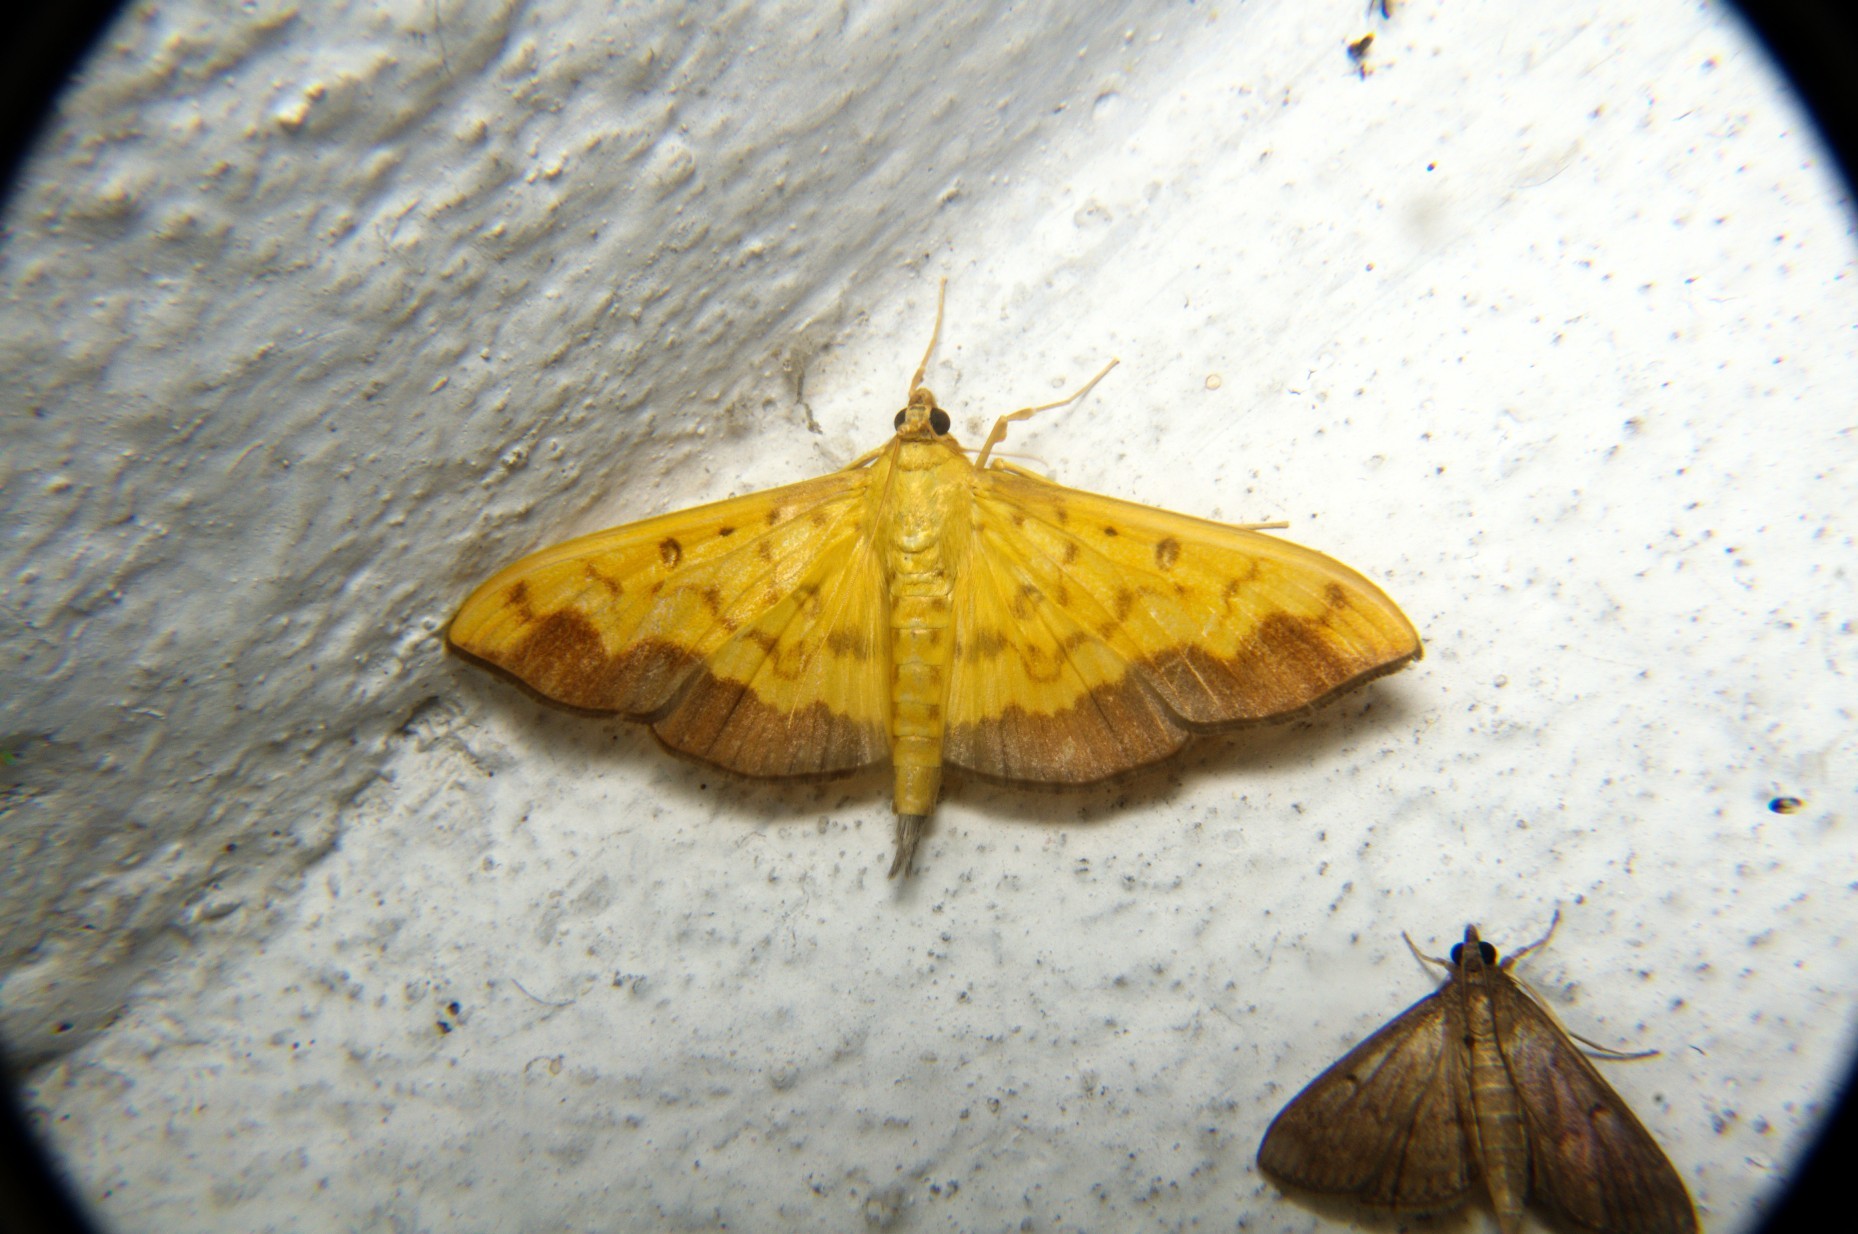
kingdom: Animalia
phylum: Arthropoda
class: Insecta
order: Lepidoptera
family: Crambidae
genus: Botyodes
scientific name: Botyodes asialis
